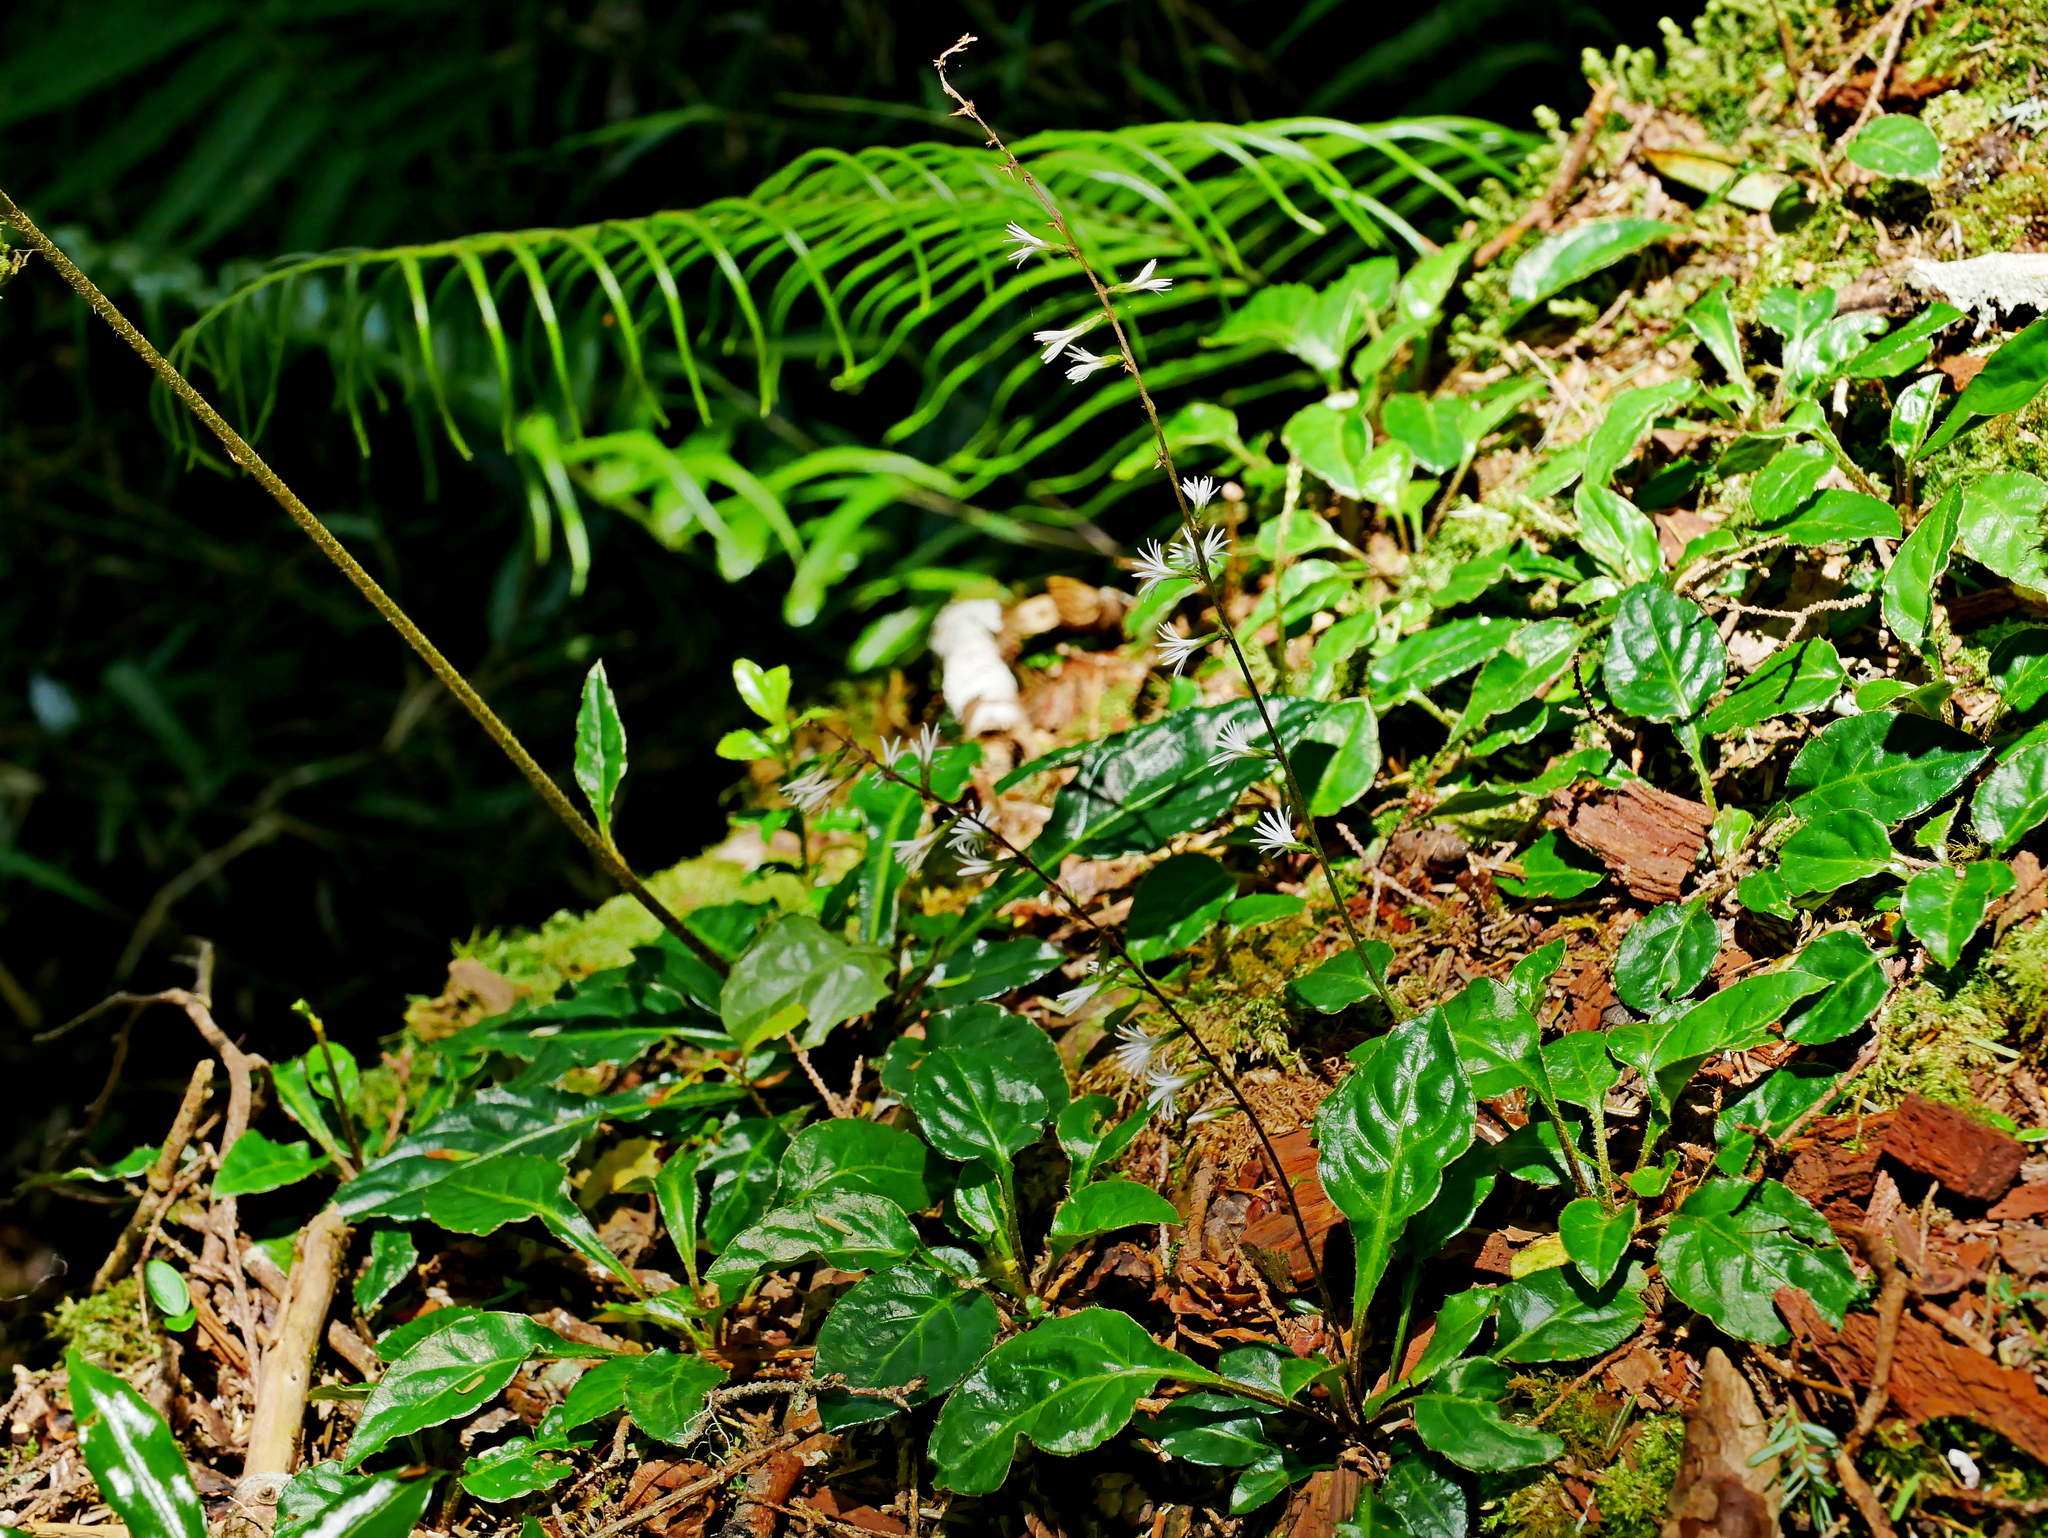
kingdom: Plantae
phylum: Tracheophyta
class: Magnoliopsida
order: Asterales
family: Asteraceae
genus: Ainsliaea
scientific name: Ainsliaea henryi
